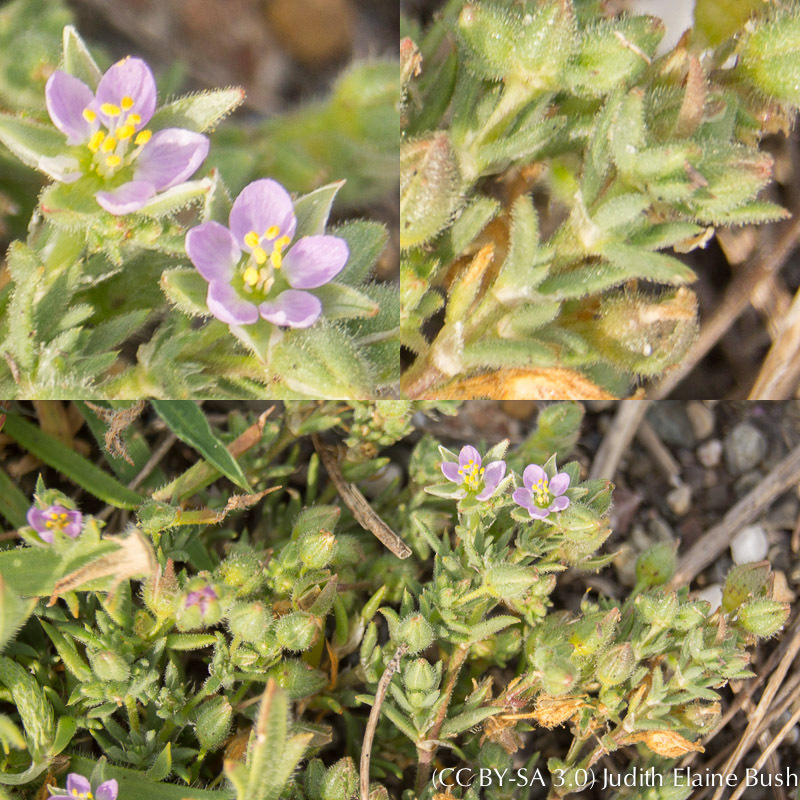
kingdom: Plantae
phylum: Tracheophyta
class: Magnoliopsida
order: Caryophyllales
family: Caryophyllaceae
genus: Spergularia
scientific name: Spergularia rubra
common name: Red sand-spurrey
